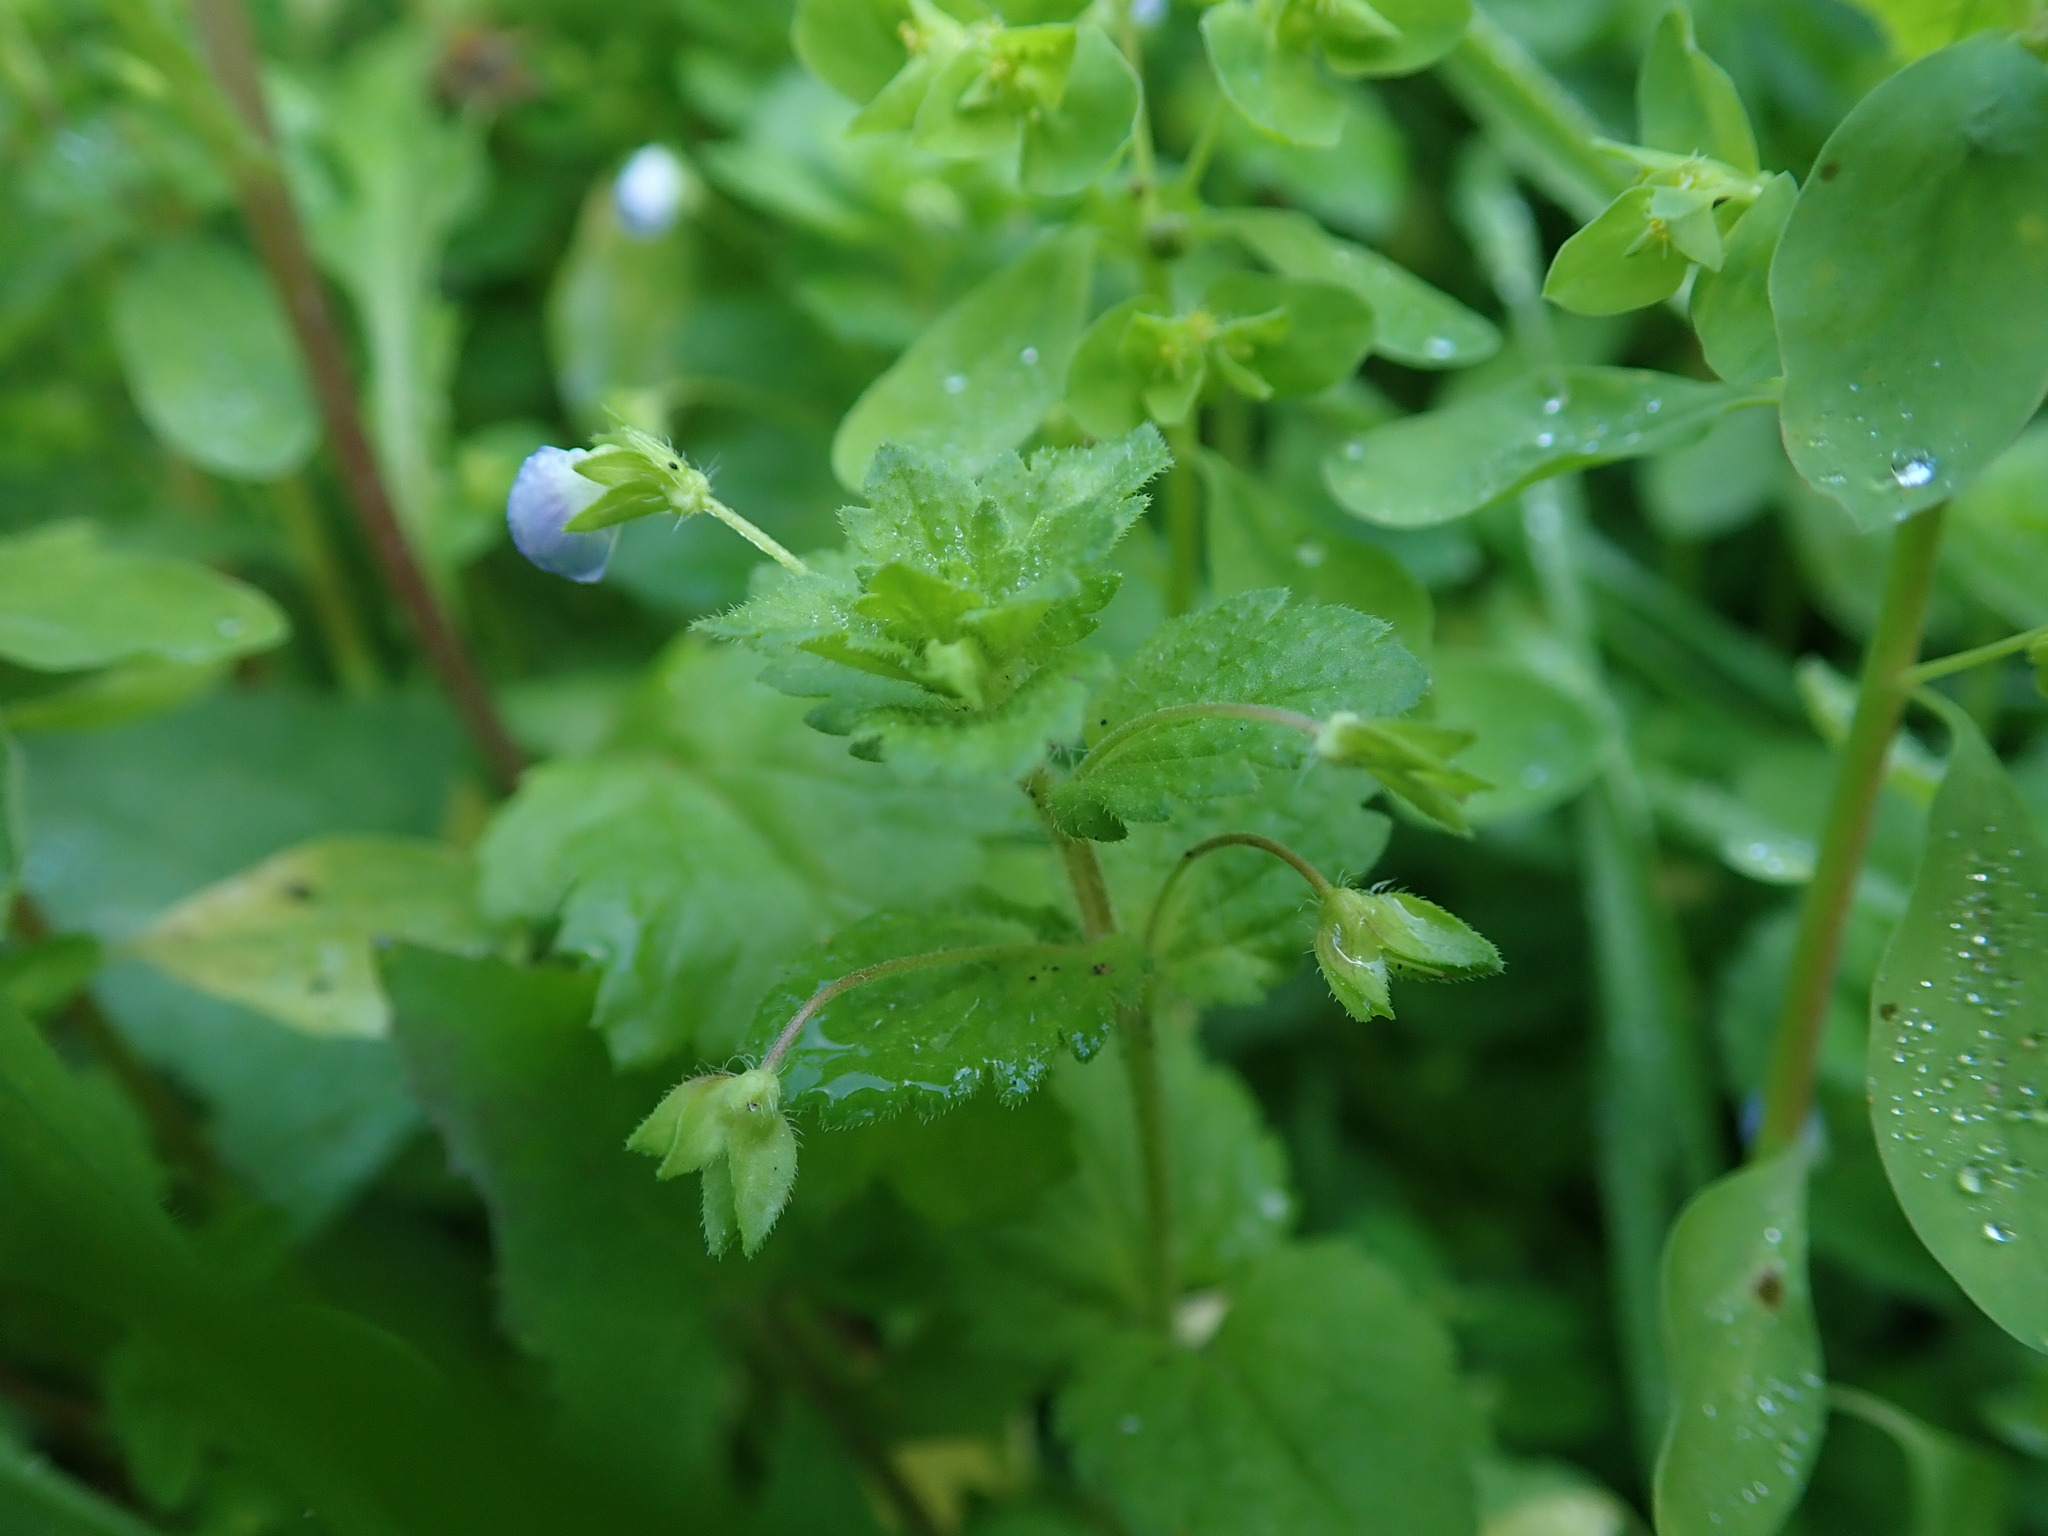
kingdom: Plantae
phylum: Tracheophyta
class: Magnoliopsida
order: Lamiales
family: Plantaginaceae
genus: Veronica
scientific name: Veronica persica
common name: Common field-speedwell
